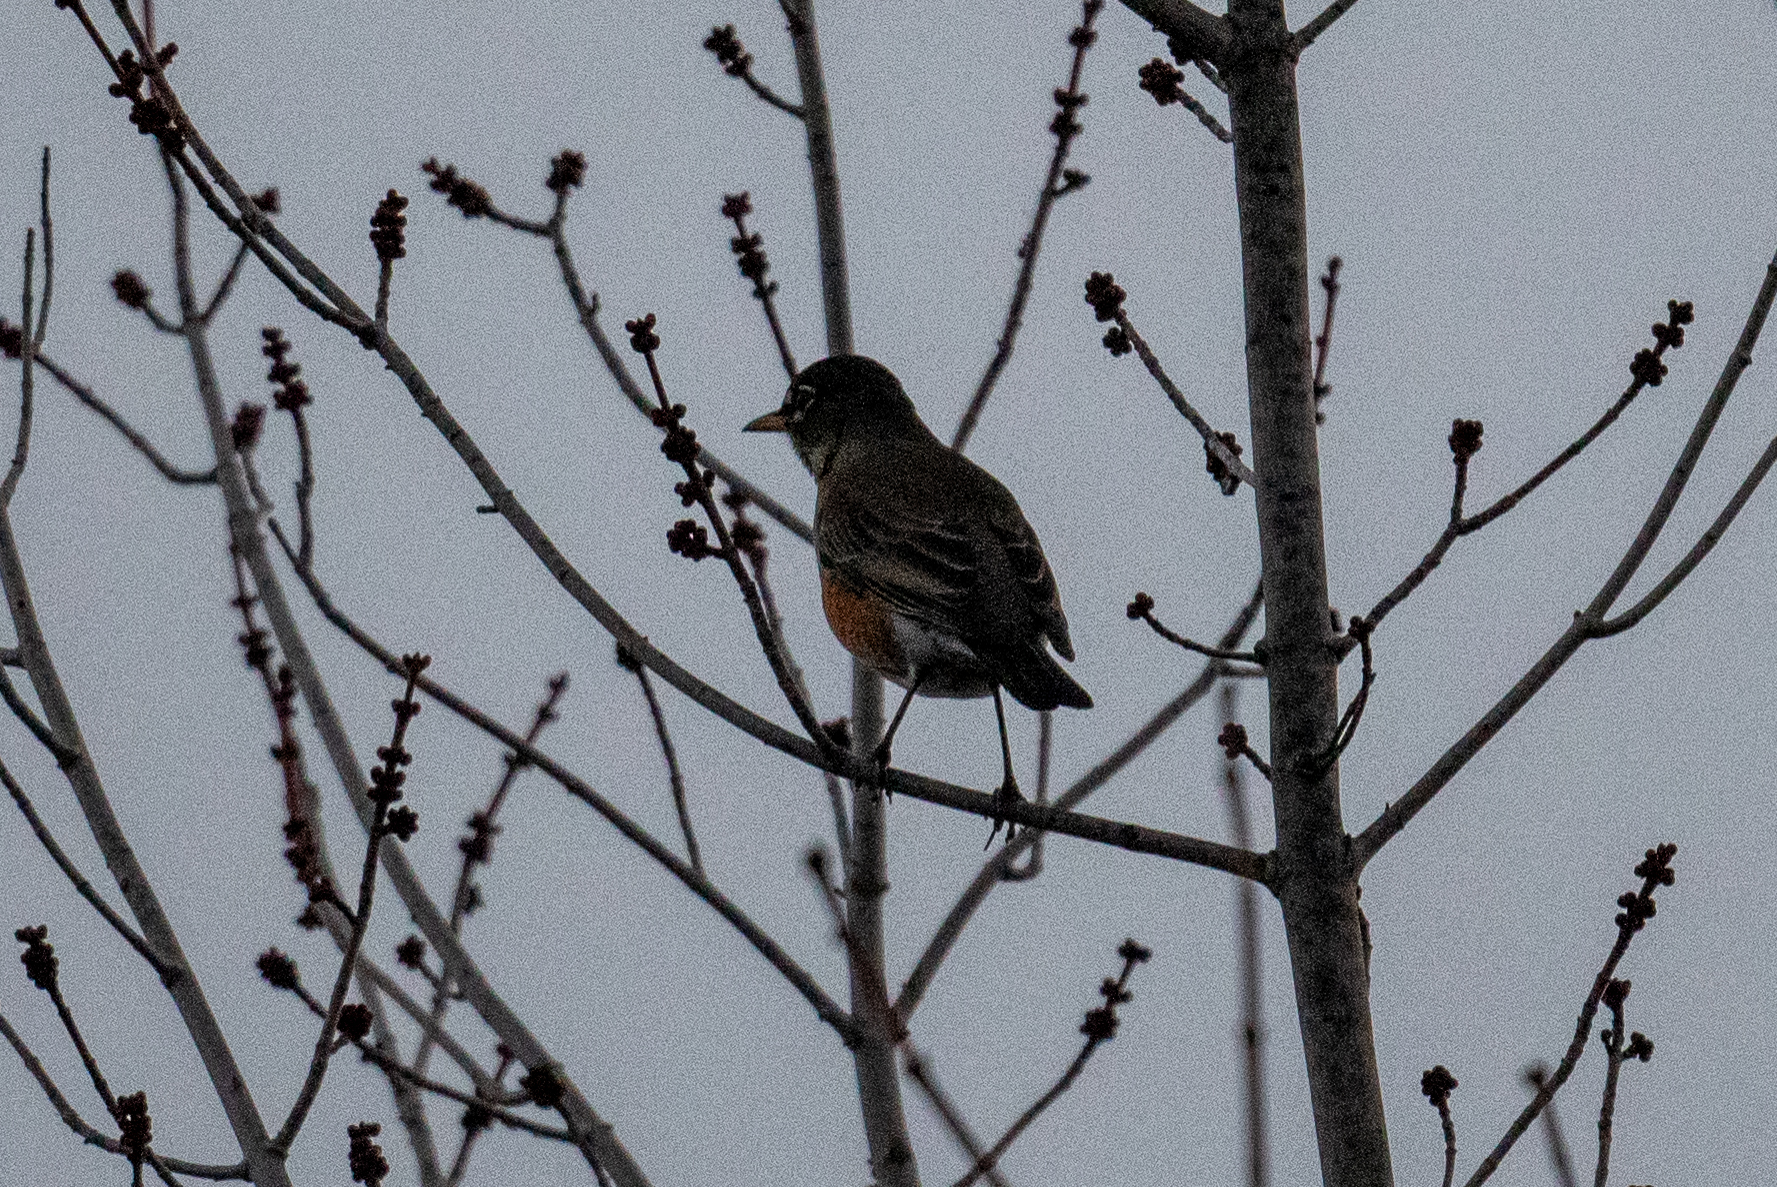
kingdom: Animalia
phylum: Chordata
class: Aves
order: Passeriformes
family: Turdidae
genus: Turdus
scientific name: Turdus migratorius
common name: American robin
